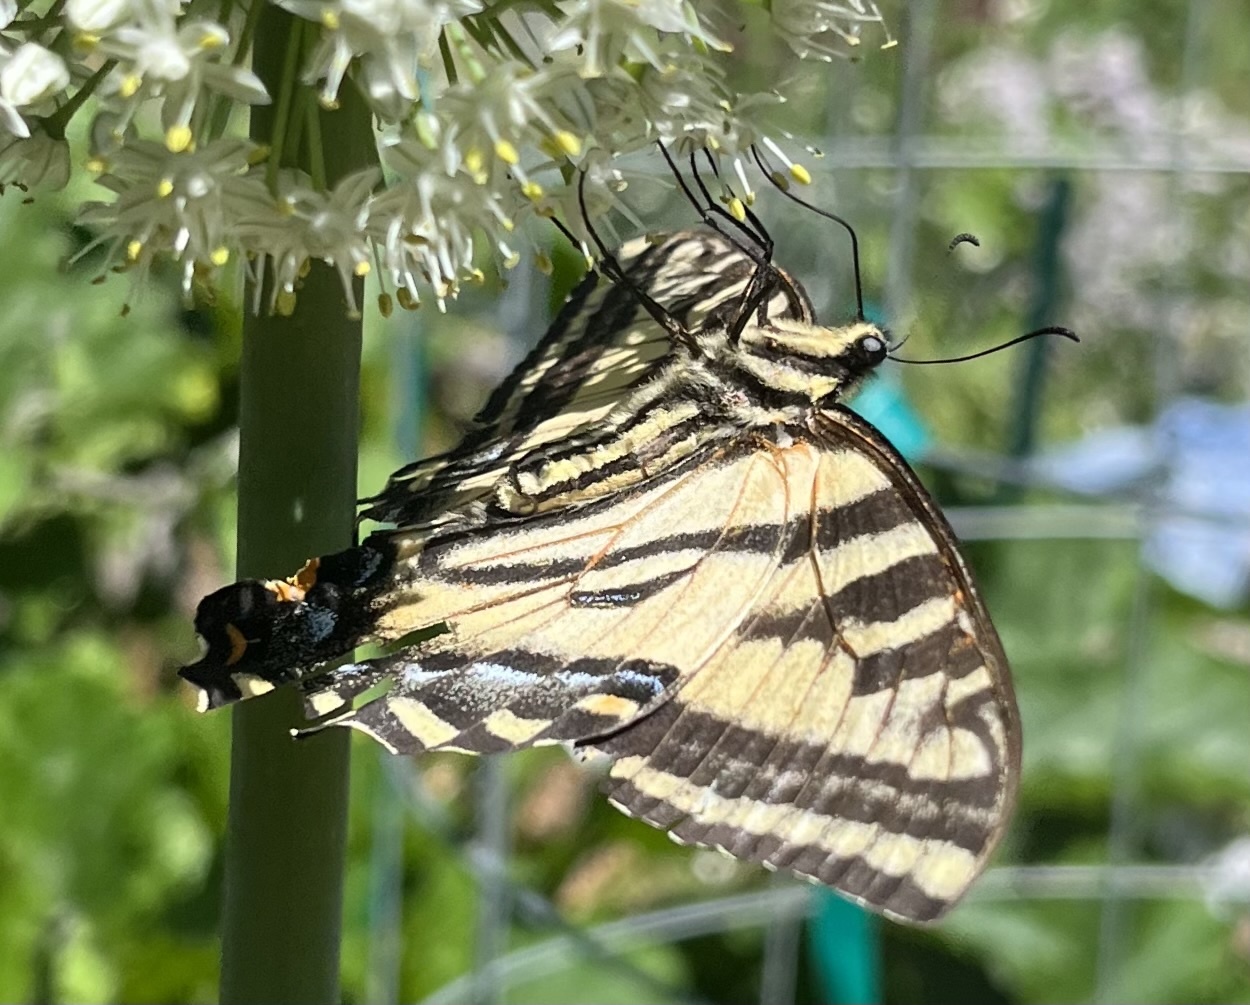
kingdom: Animalia
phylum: Arthropoda
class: Insecta
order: Lepidoptera
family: Papilionidae
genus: Papilio
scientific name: Papilio rutulus
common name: Western tiger swallowtail
